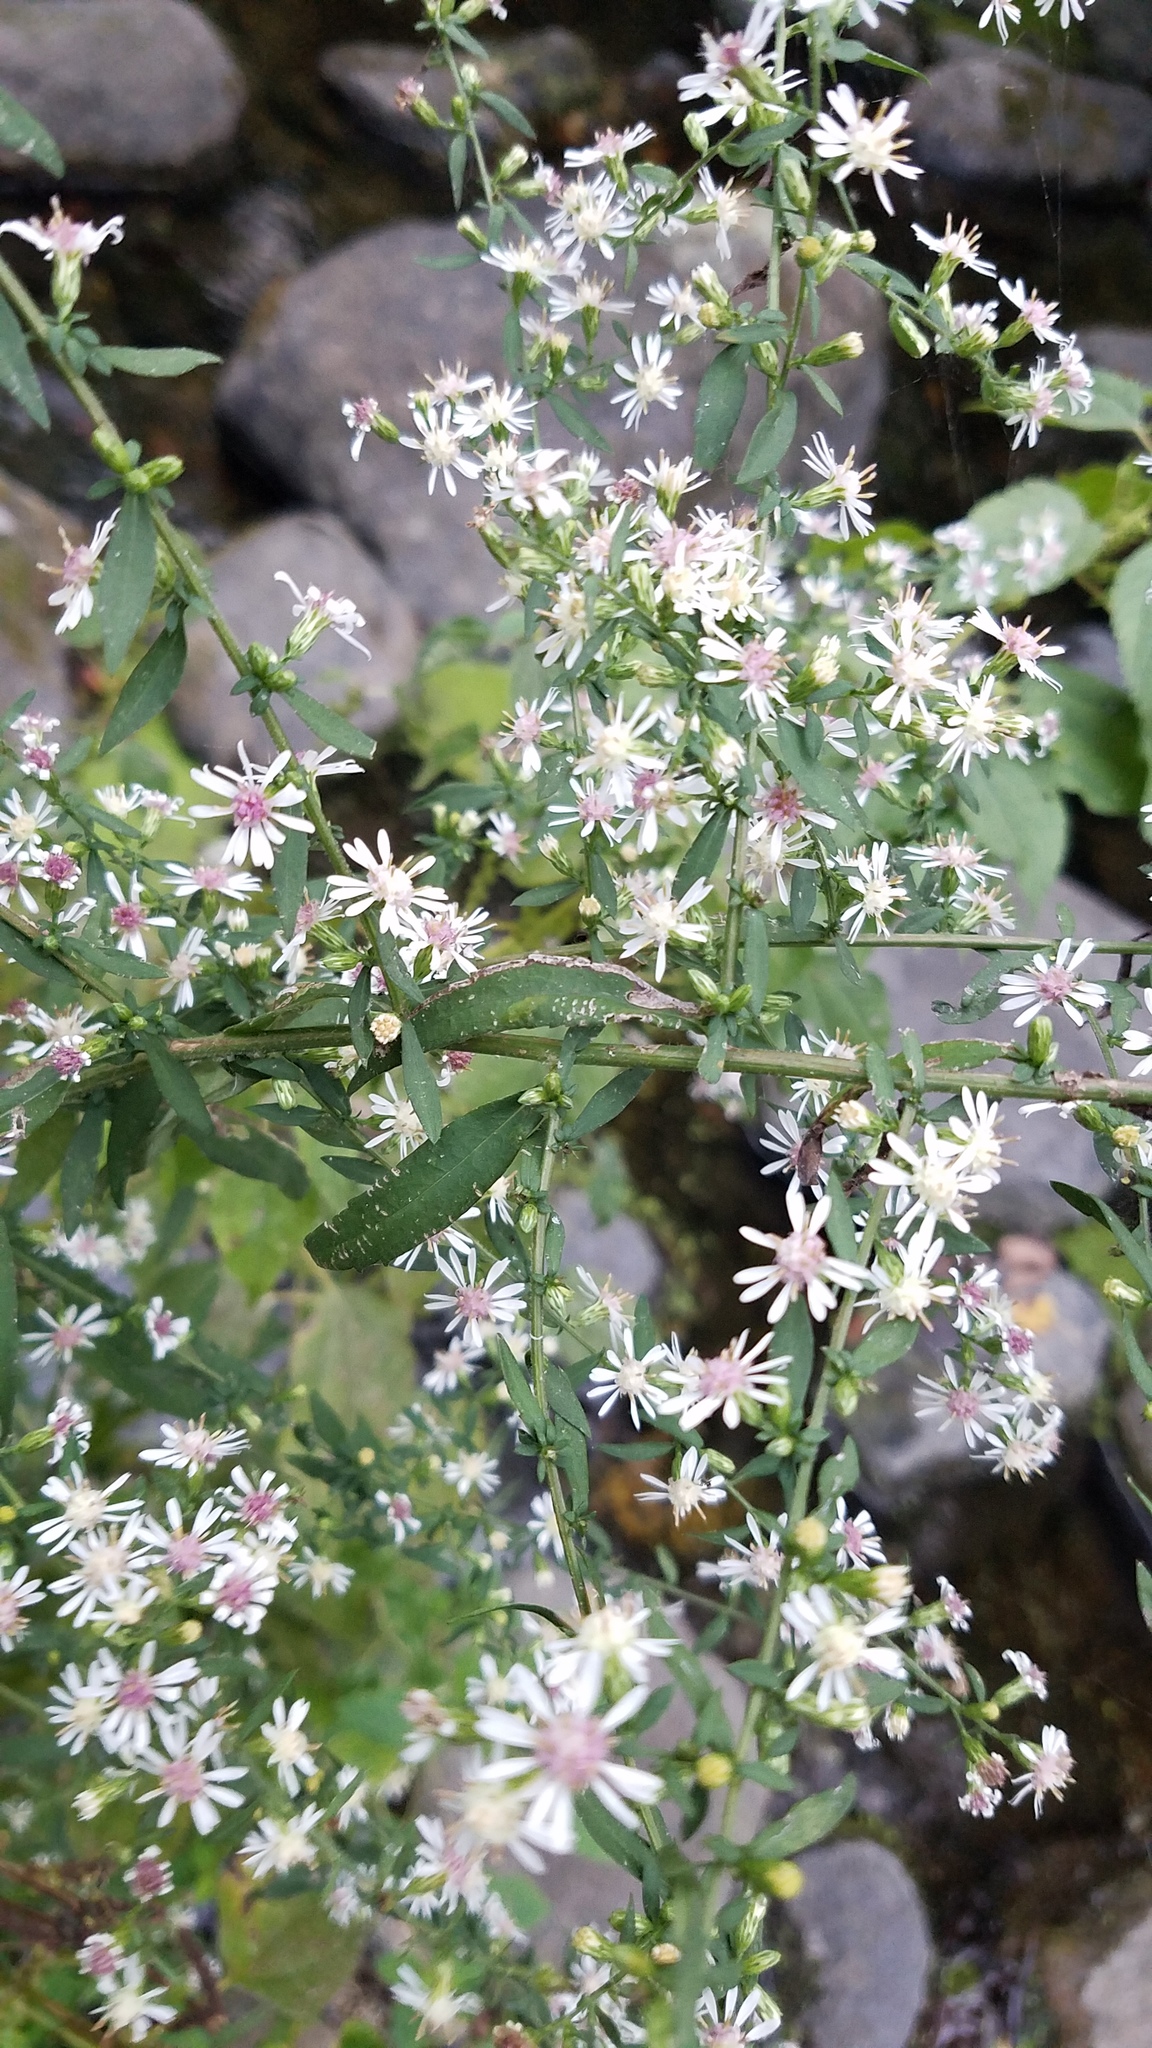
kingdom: Plantae
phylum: Tracheophyta
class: Magnoliopsida
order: Asterales
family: Asteraceae
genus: Symphyotrichum
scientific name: Symphyotrichum lateriflorum
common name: Calico aster
